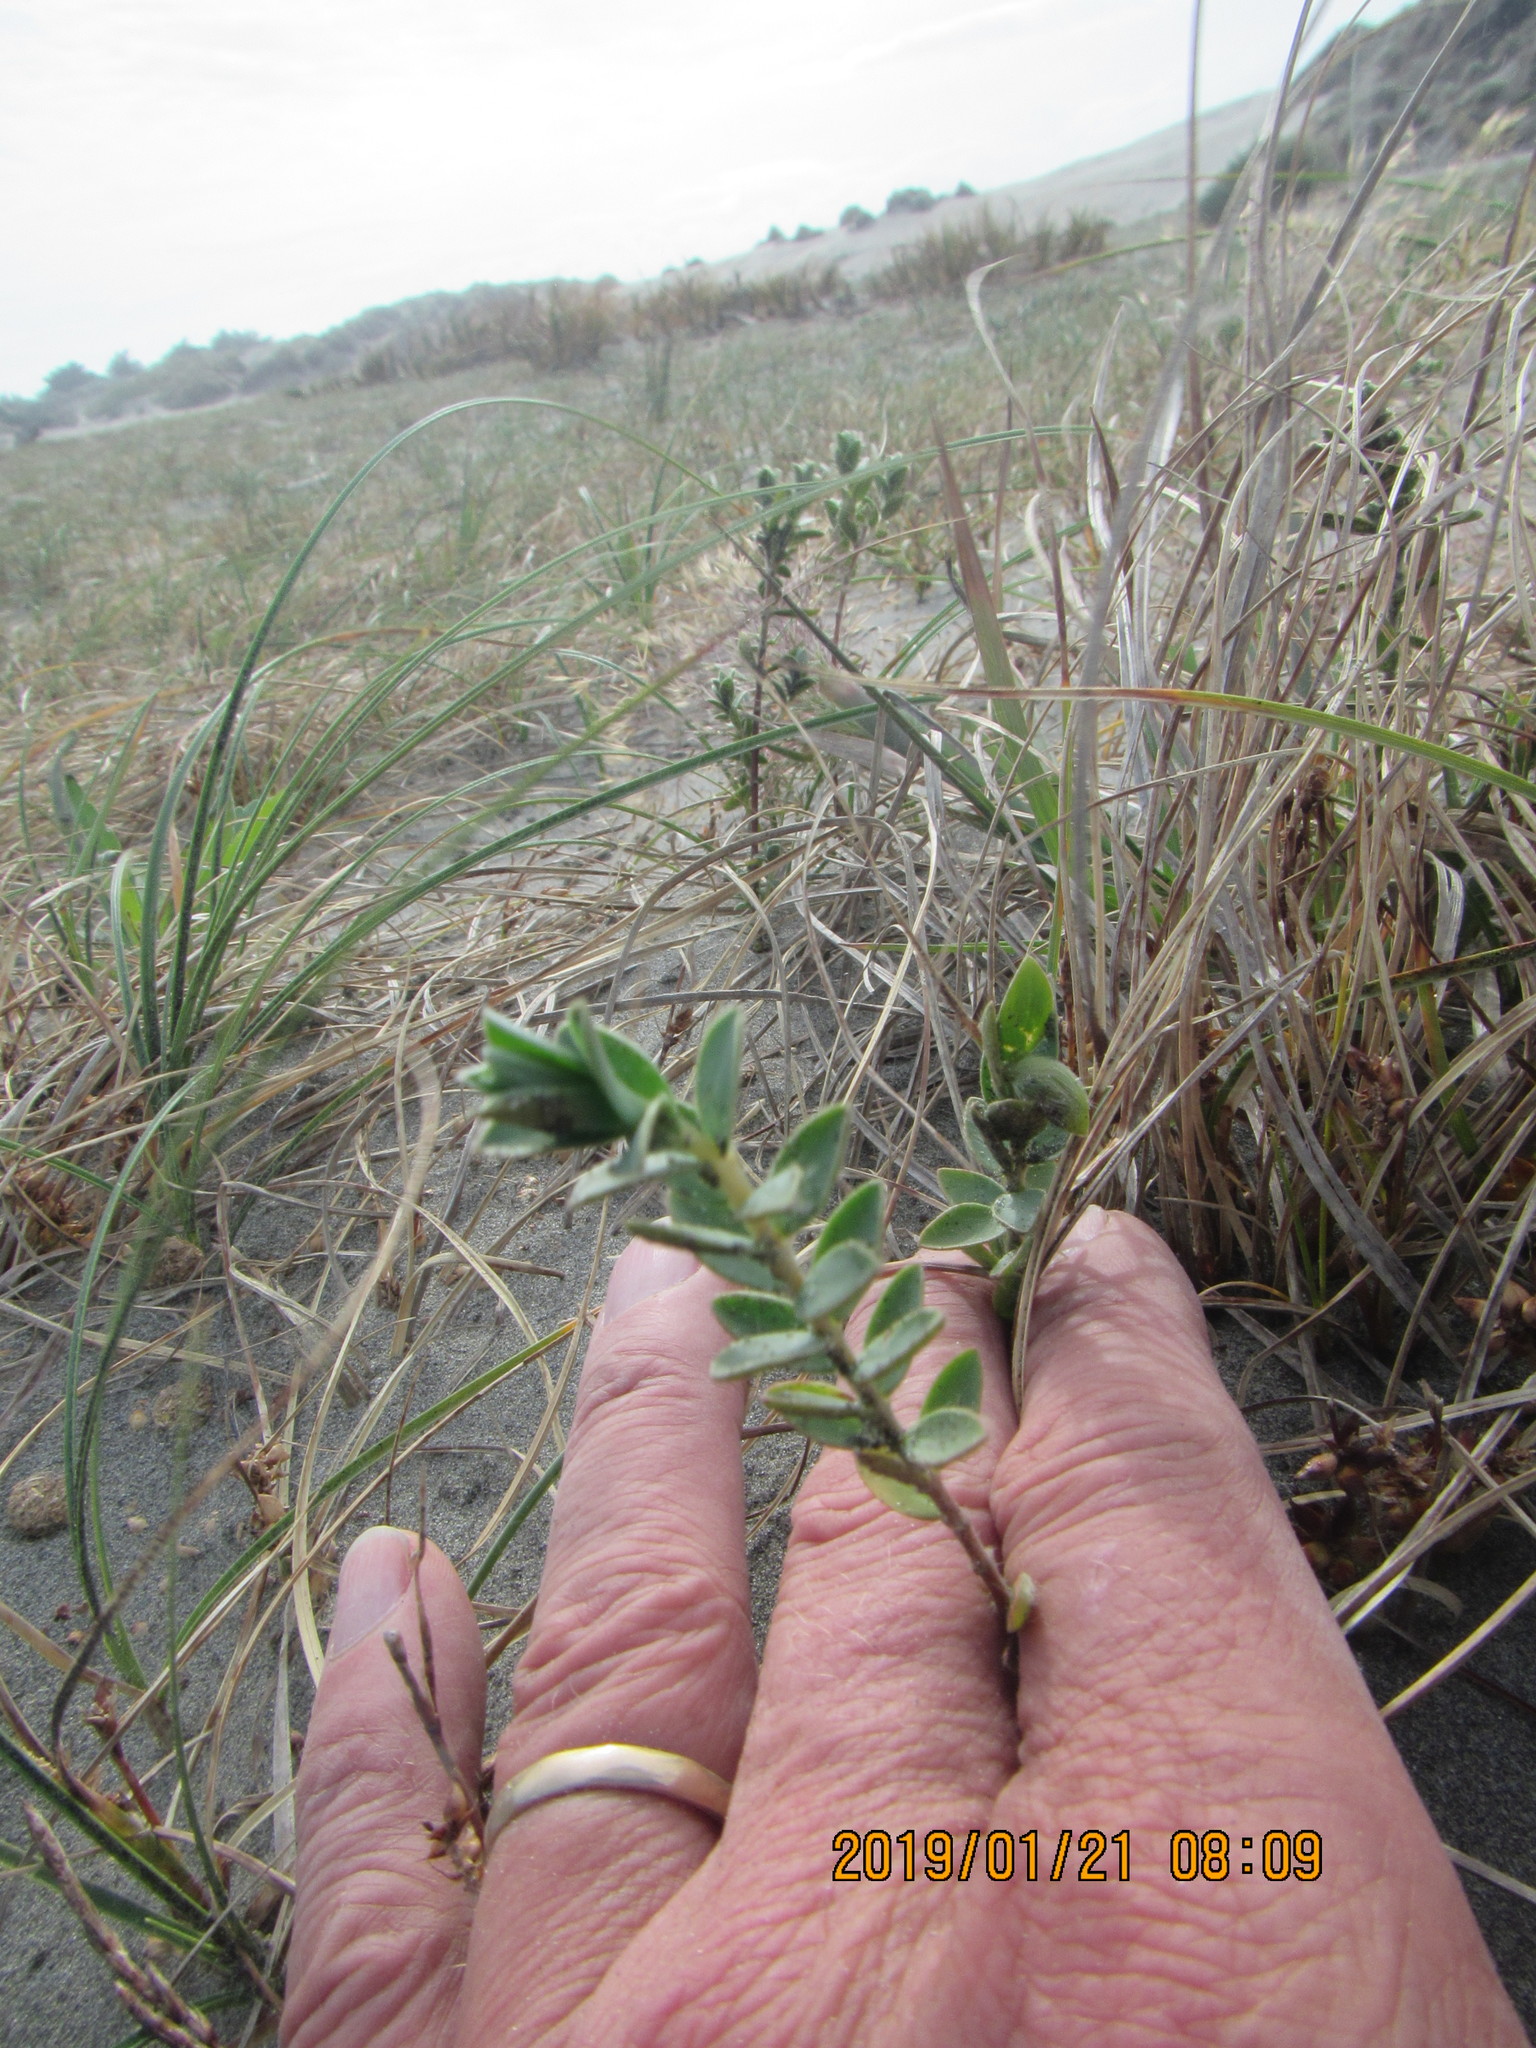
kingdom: Plantae
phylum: Tracheophyta
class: Magnoliopsida
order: Malvales
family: Thymelaeaceae
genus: Pimelea
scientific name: Pimelea villosa
